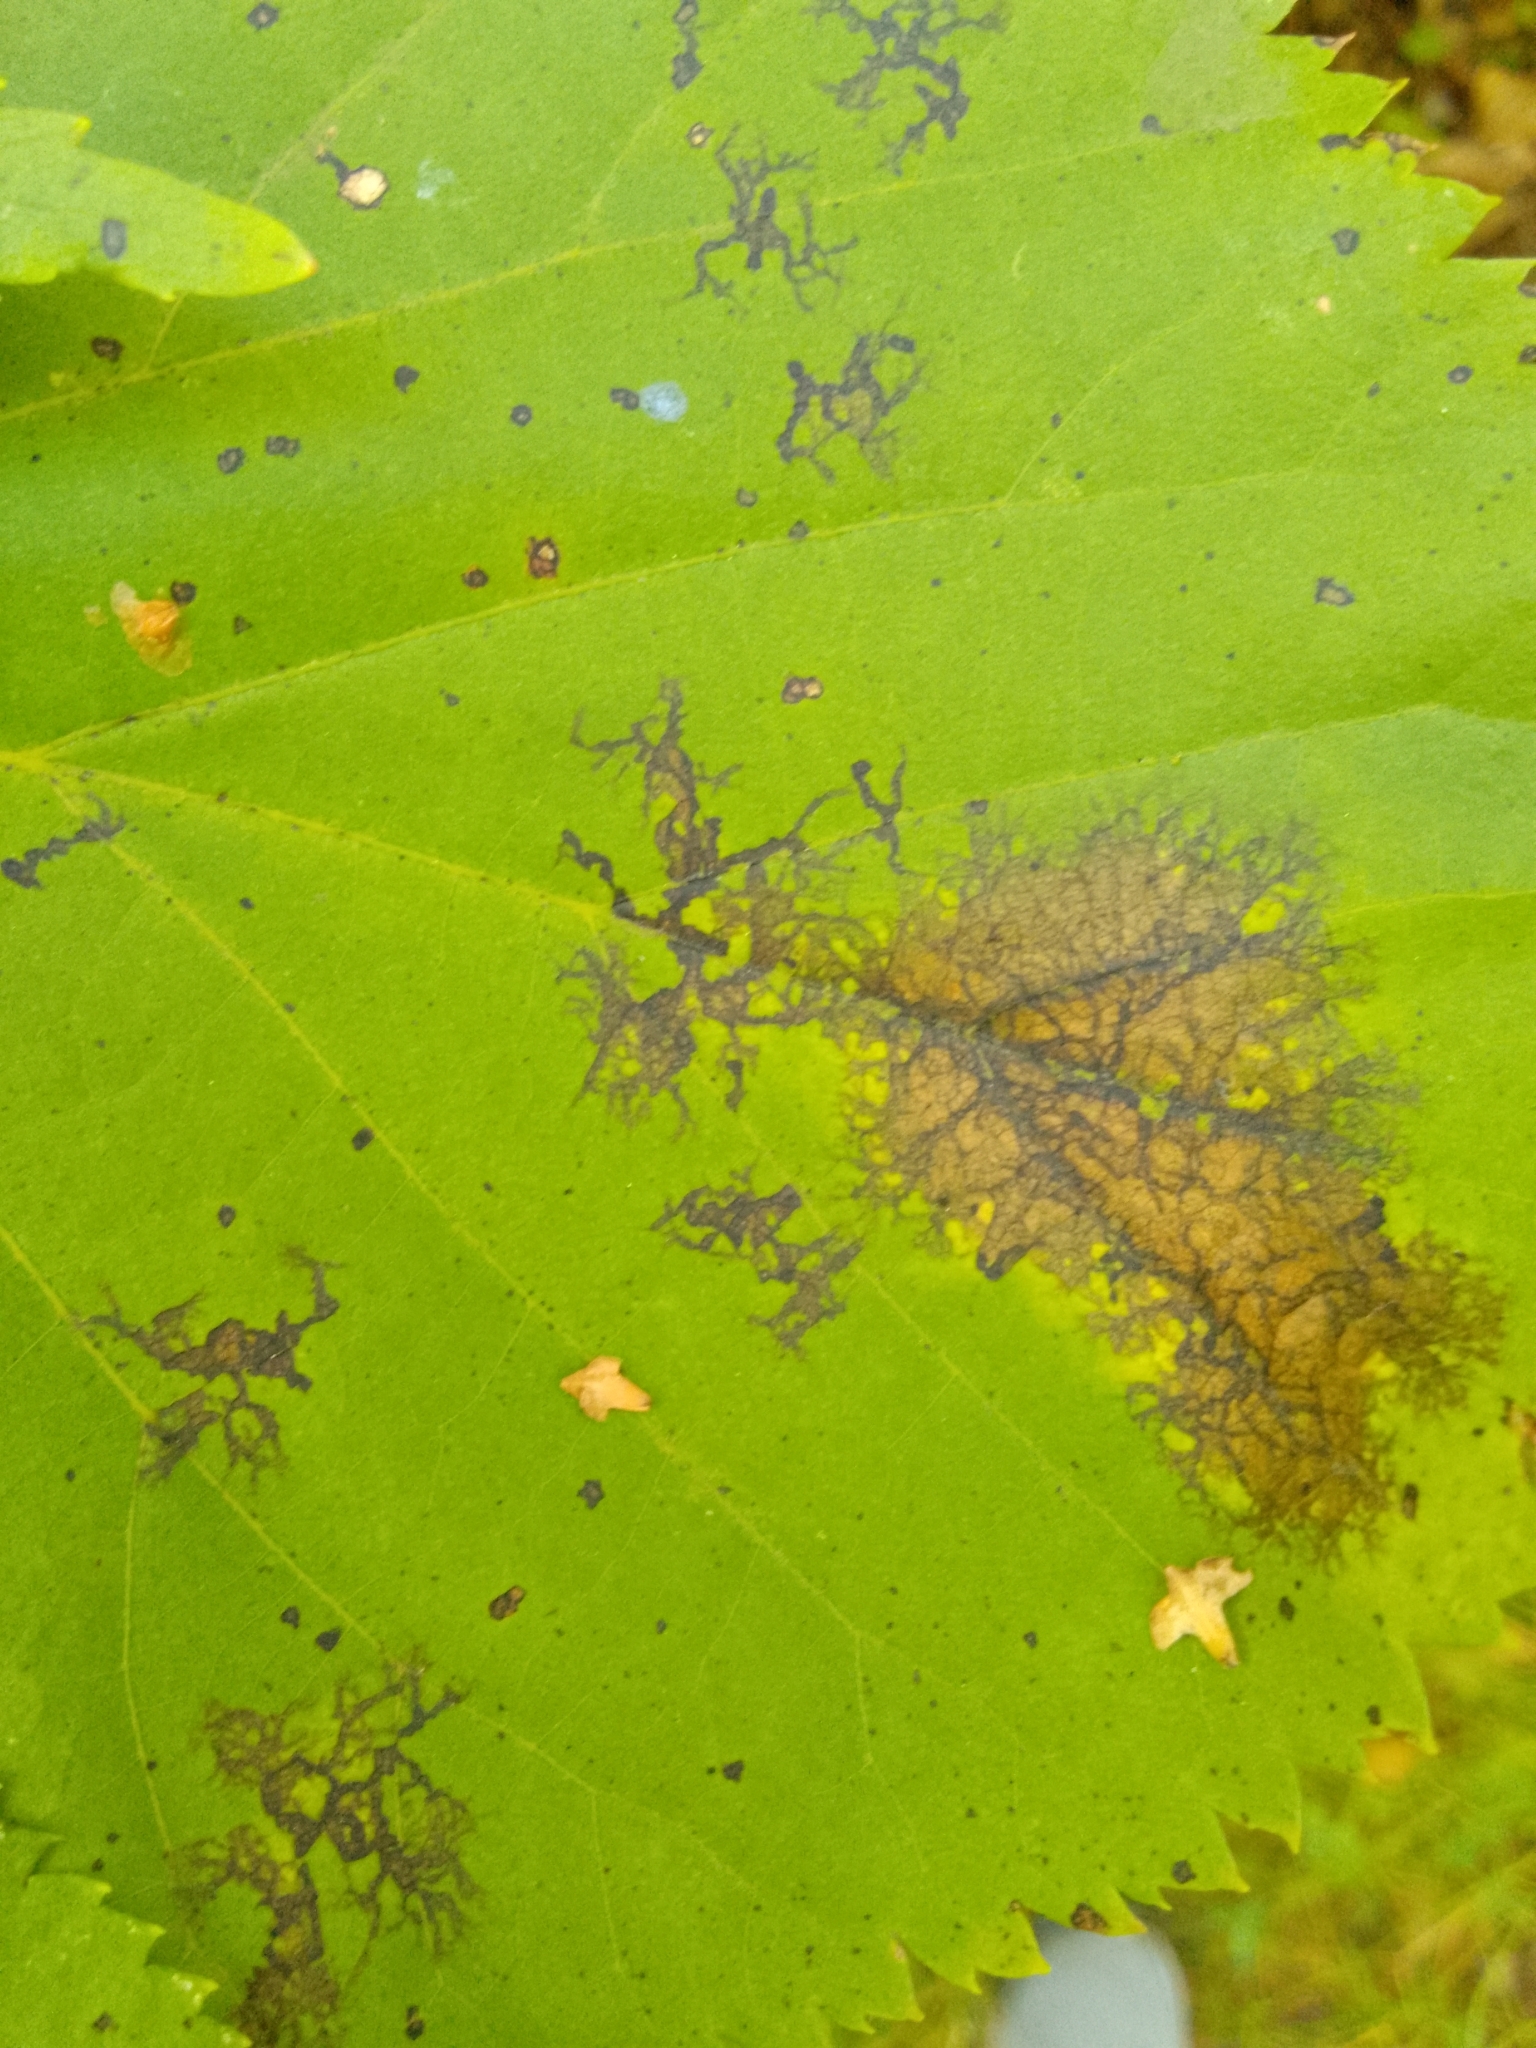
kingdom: Fungi
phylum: Ascomycota
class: Dothideomycetes
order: Pleosporales
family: Didymosphaeriaceae
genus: Paraconiothyrium
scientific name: Paraconiothyrium tiliae
